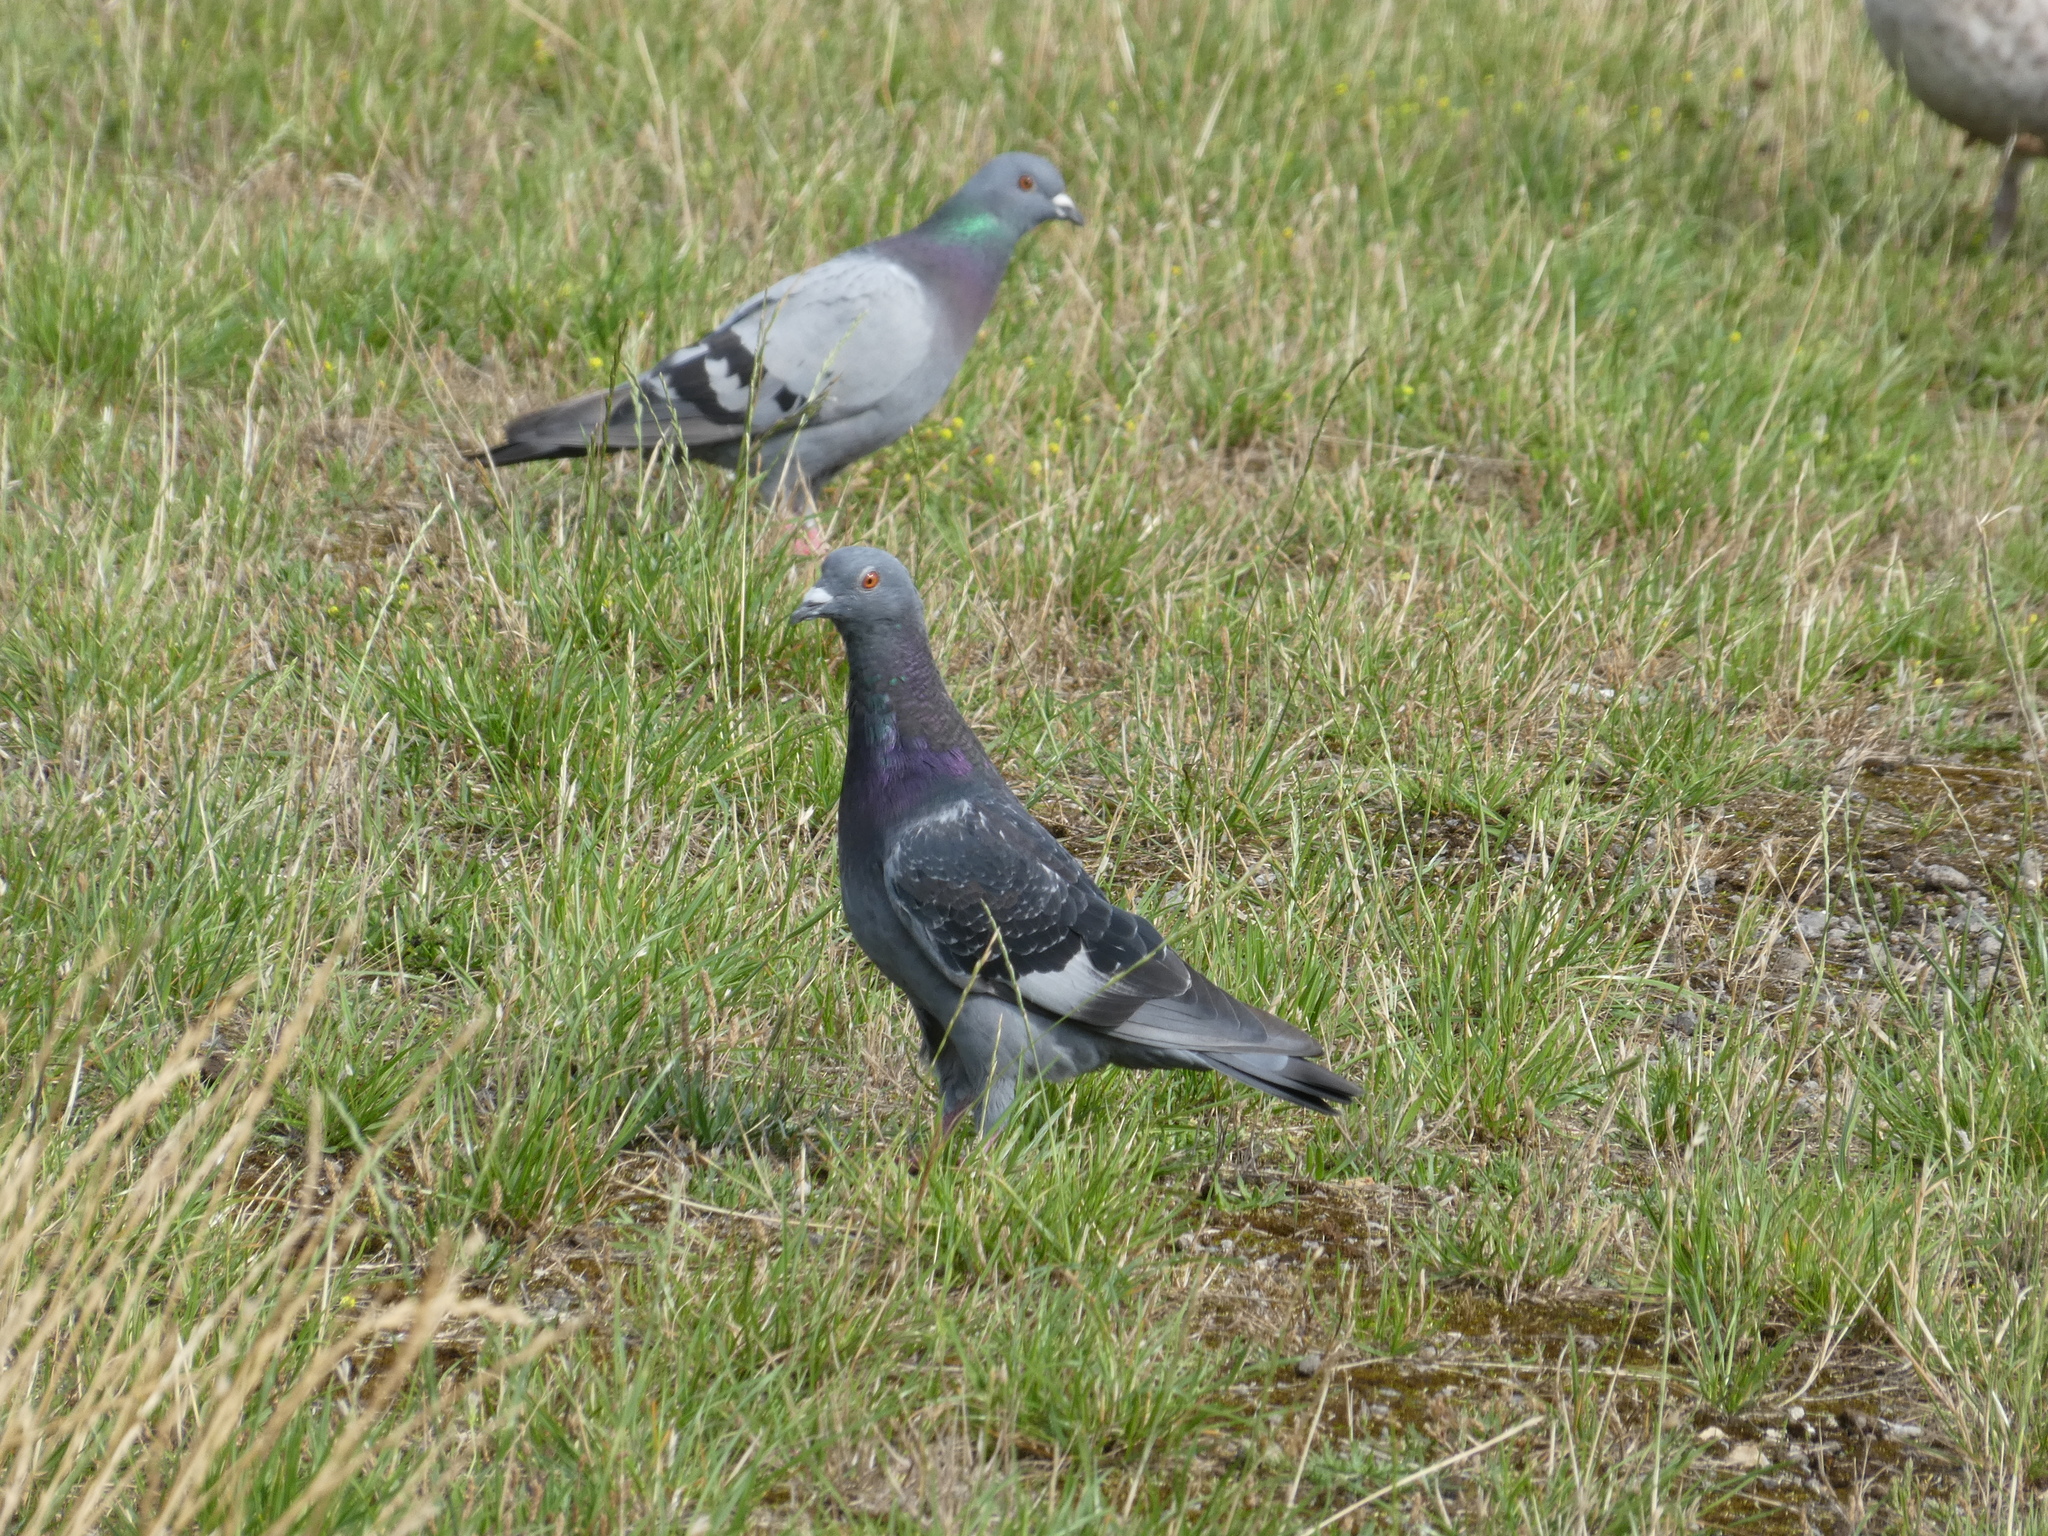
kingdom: Animalia
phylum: Chordata
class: Aves
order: Columbiformes
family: Columbidae
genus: Columba
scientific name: Columba livia
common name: Rock pigeon
